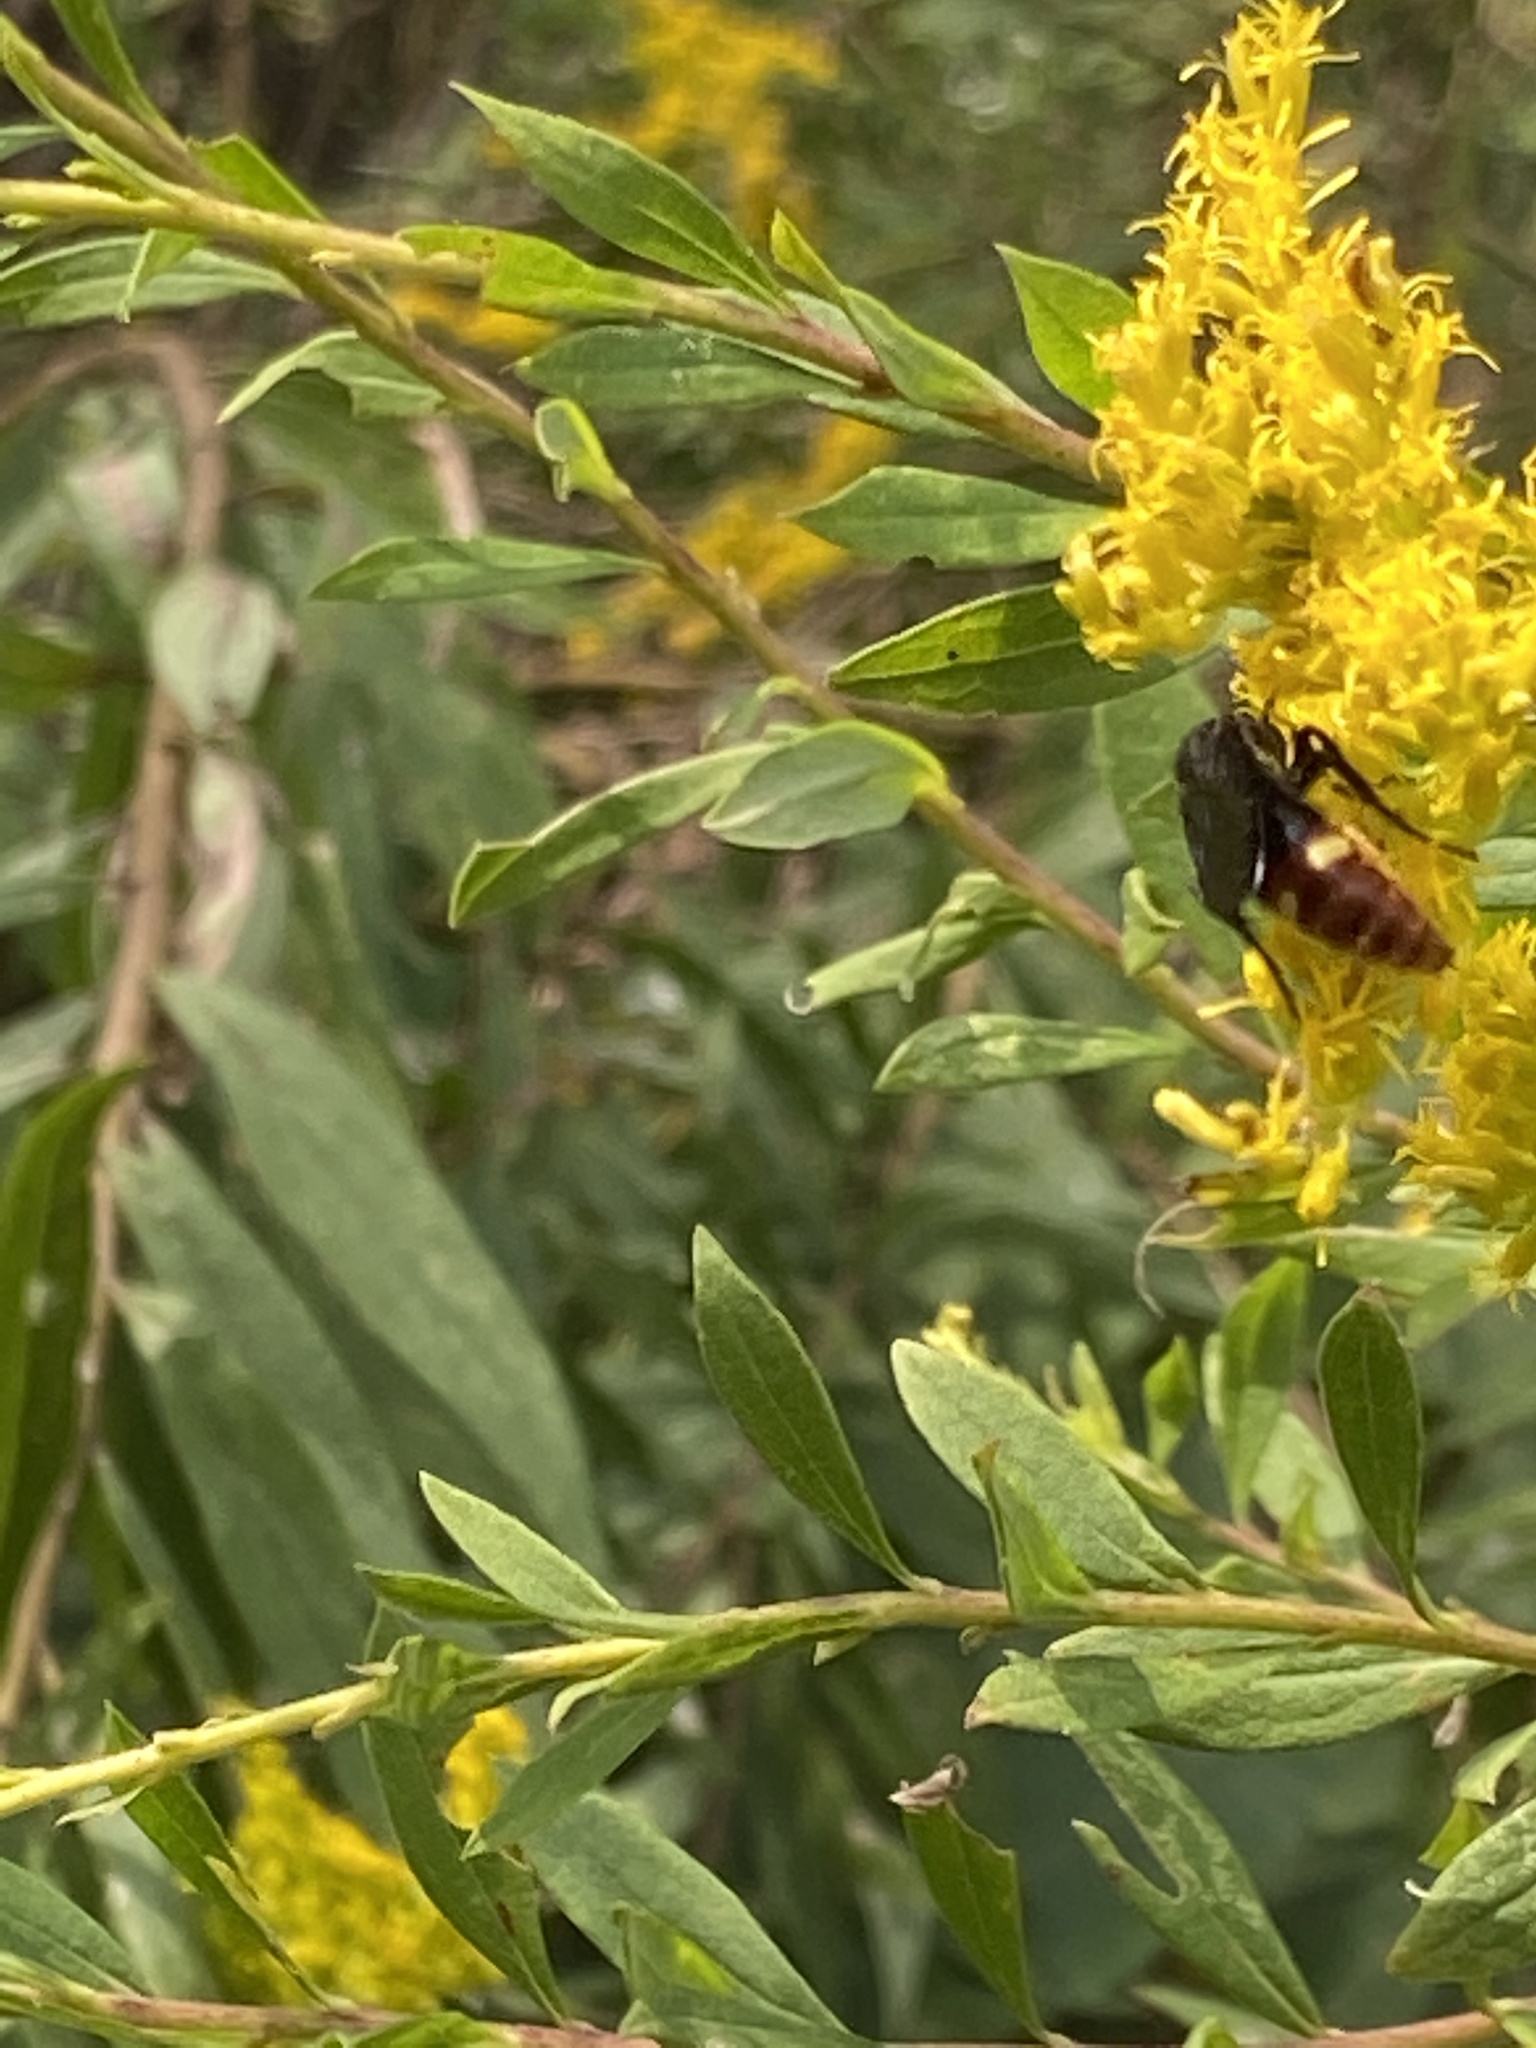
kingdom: Animalia
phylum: Arthropoda
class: Insecta
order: Hymenoptera
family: Scoliidae
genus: Scolia
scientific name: Scolia dubia
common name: Blue-winged scoliid wasp
